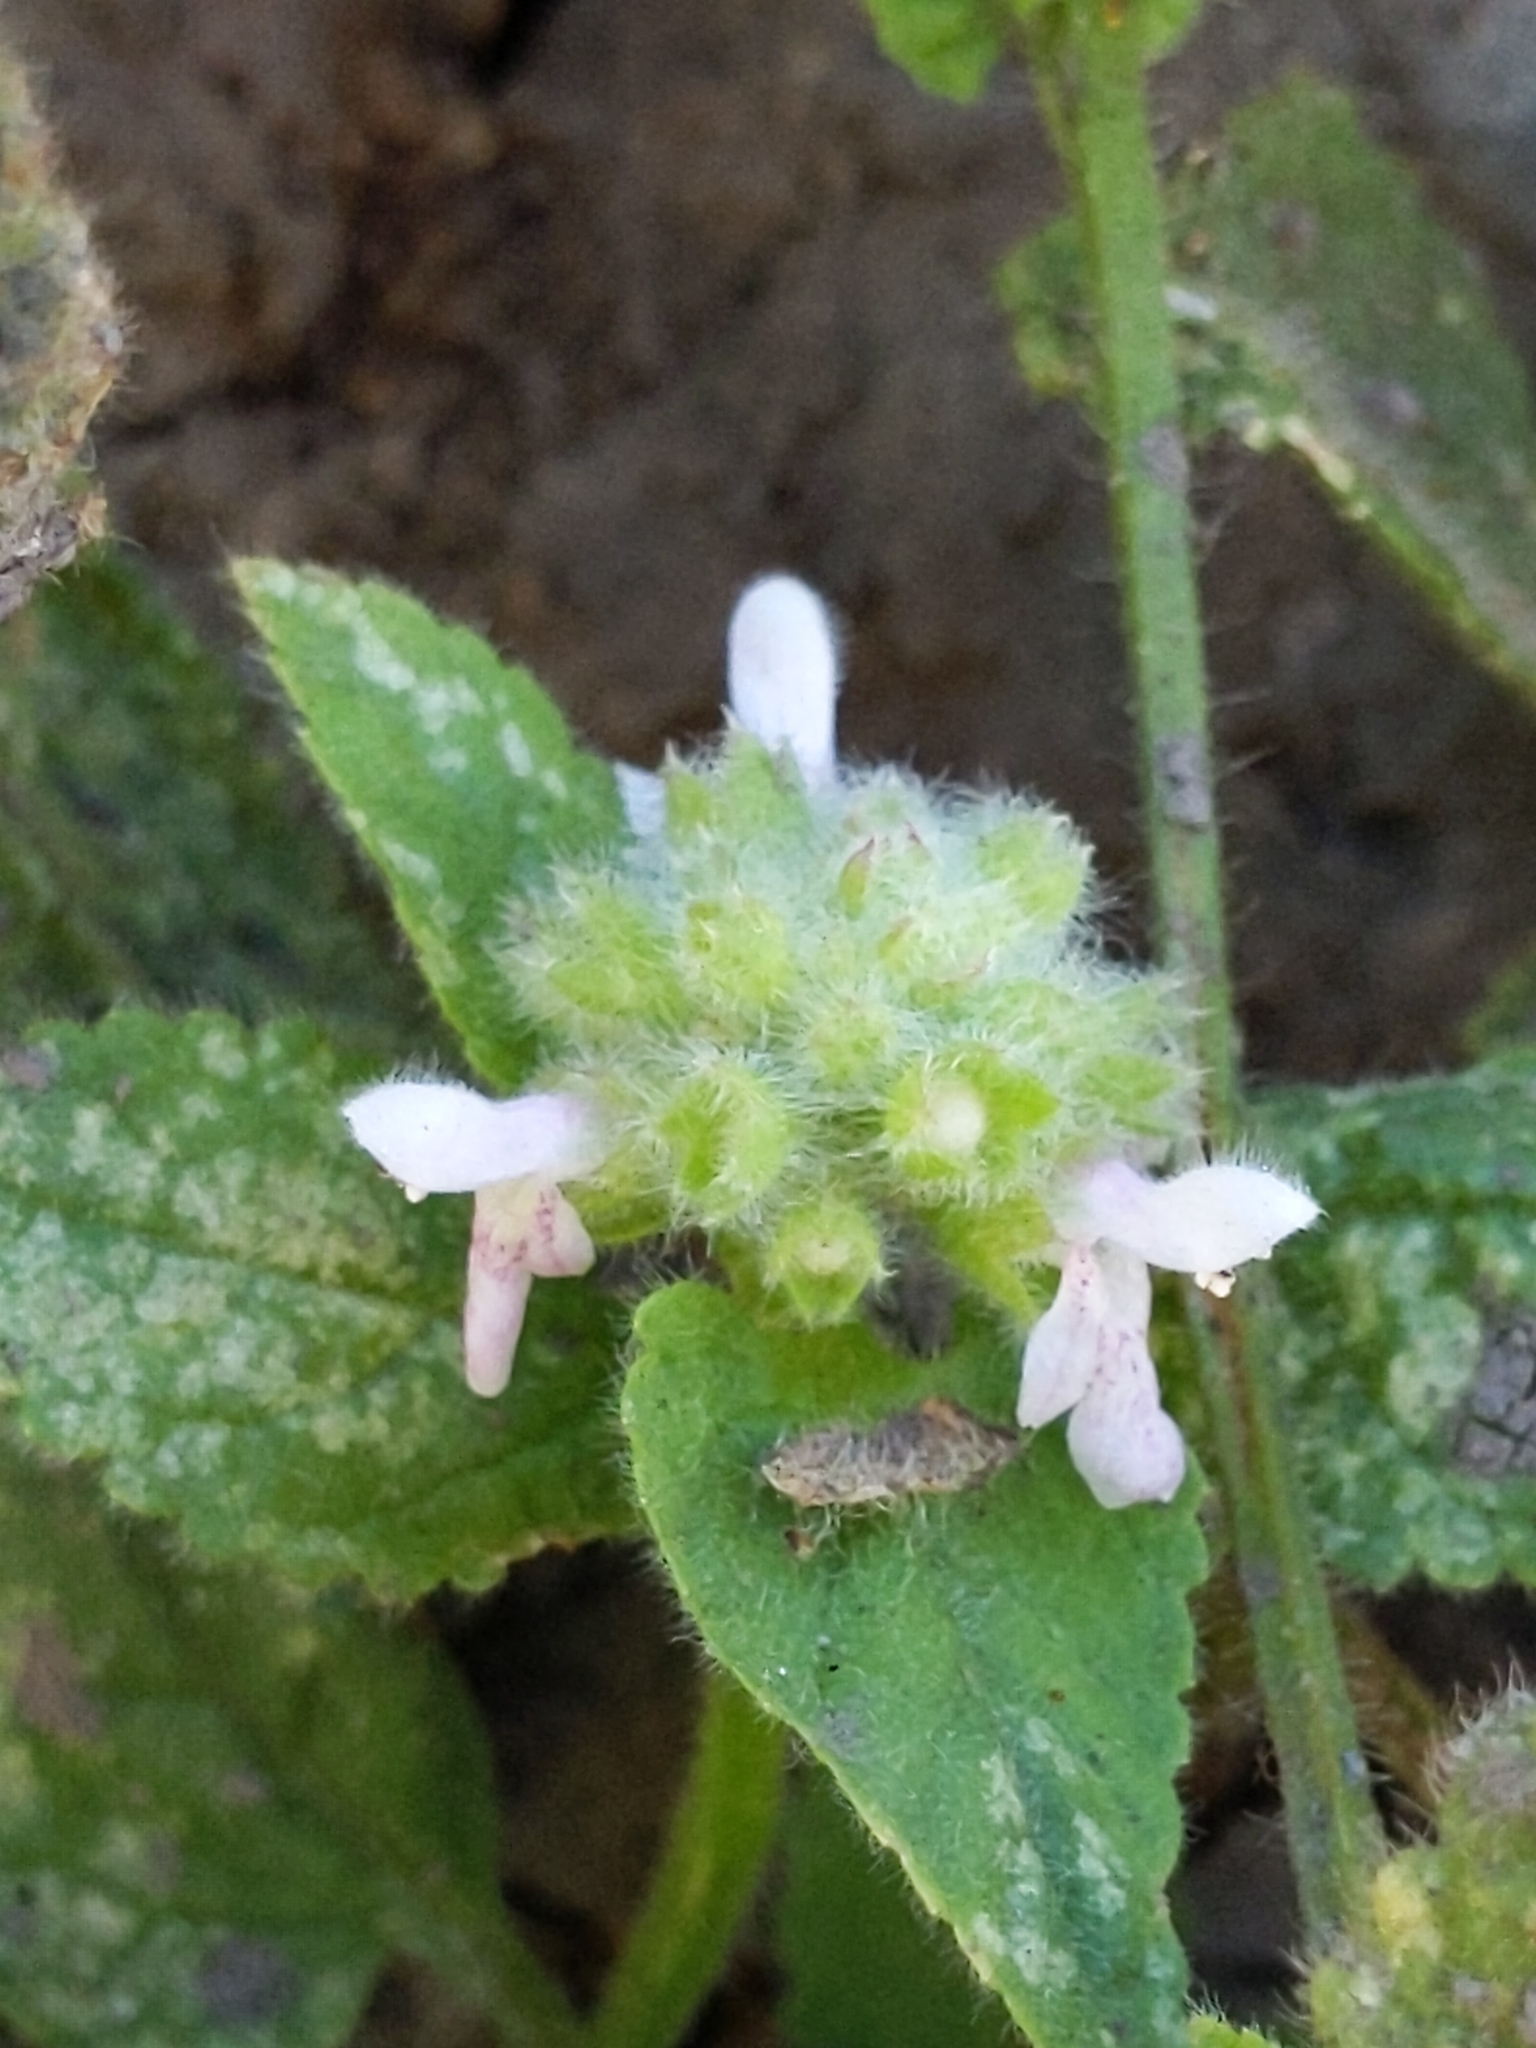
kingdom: Plantae
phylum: Tracheophyta
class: Magnoliopsida
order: Lamiales
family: Lamiaceae
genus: Stachys
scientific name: Stachys pycnantha
